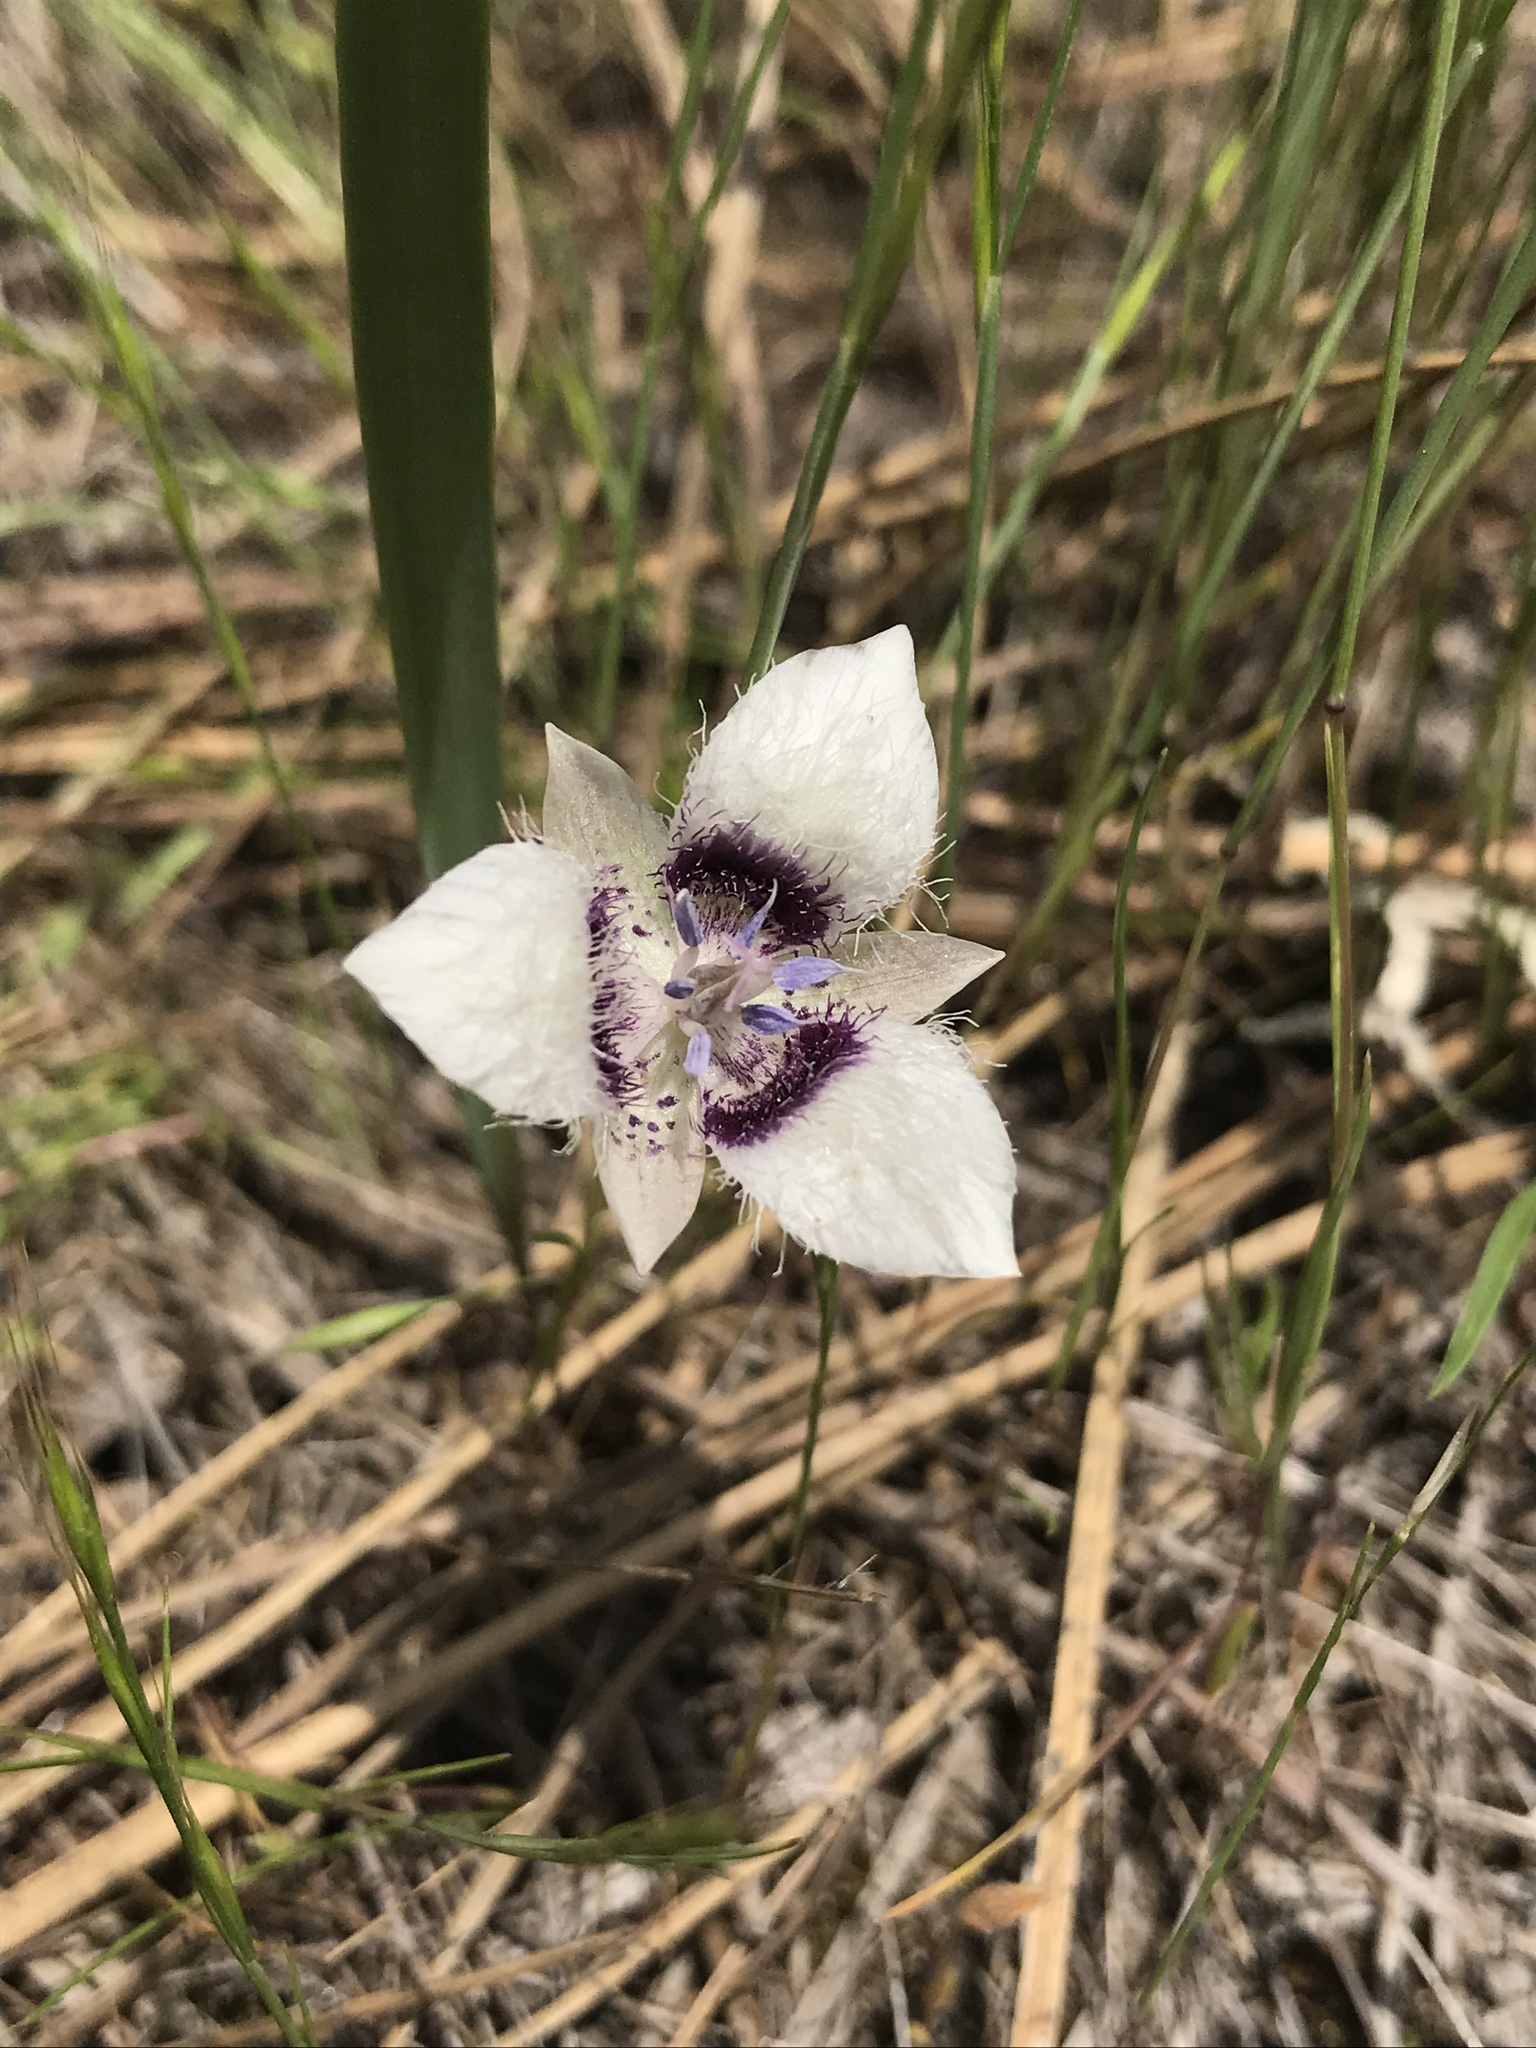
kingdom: Plantae
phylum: Tracheophyta
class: Liliopsida
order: Liliales
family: Liliaceae
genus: Calochortus
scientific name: Calochortus elegans
